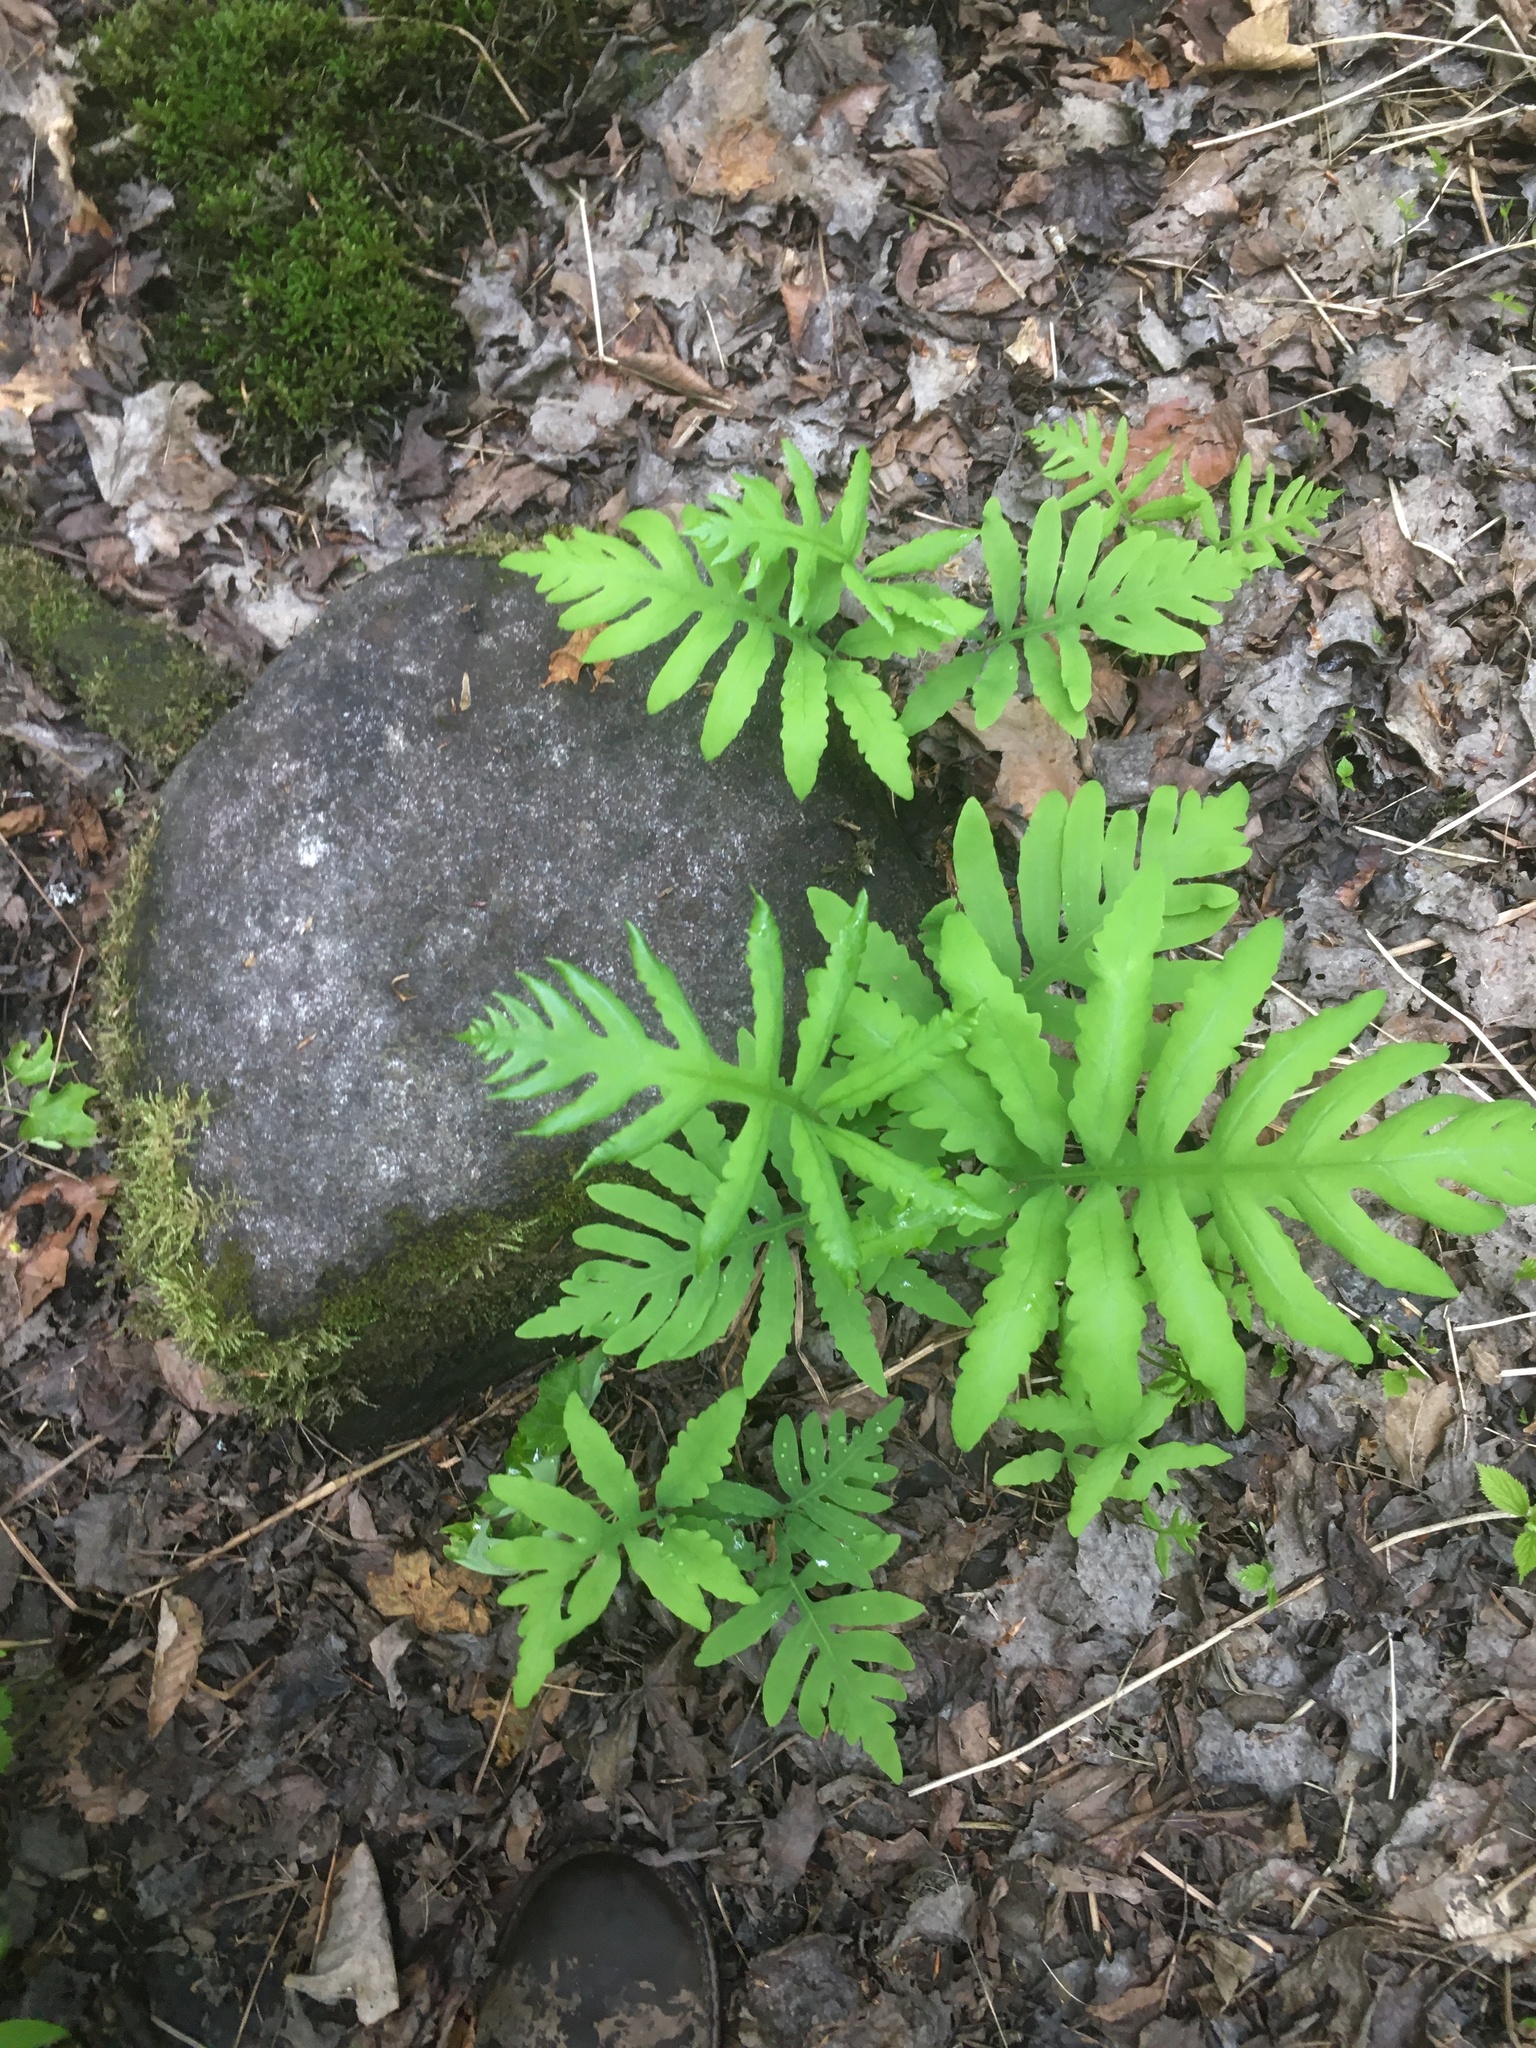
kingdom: Plantae
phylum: Tracheophyta
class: Polypodiopsida
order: Polypodiales
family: Onocleaceae
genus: Onoclea
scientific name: Onoclea sensibilis
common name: Sensitive fern
